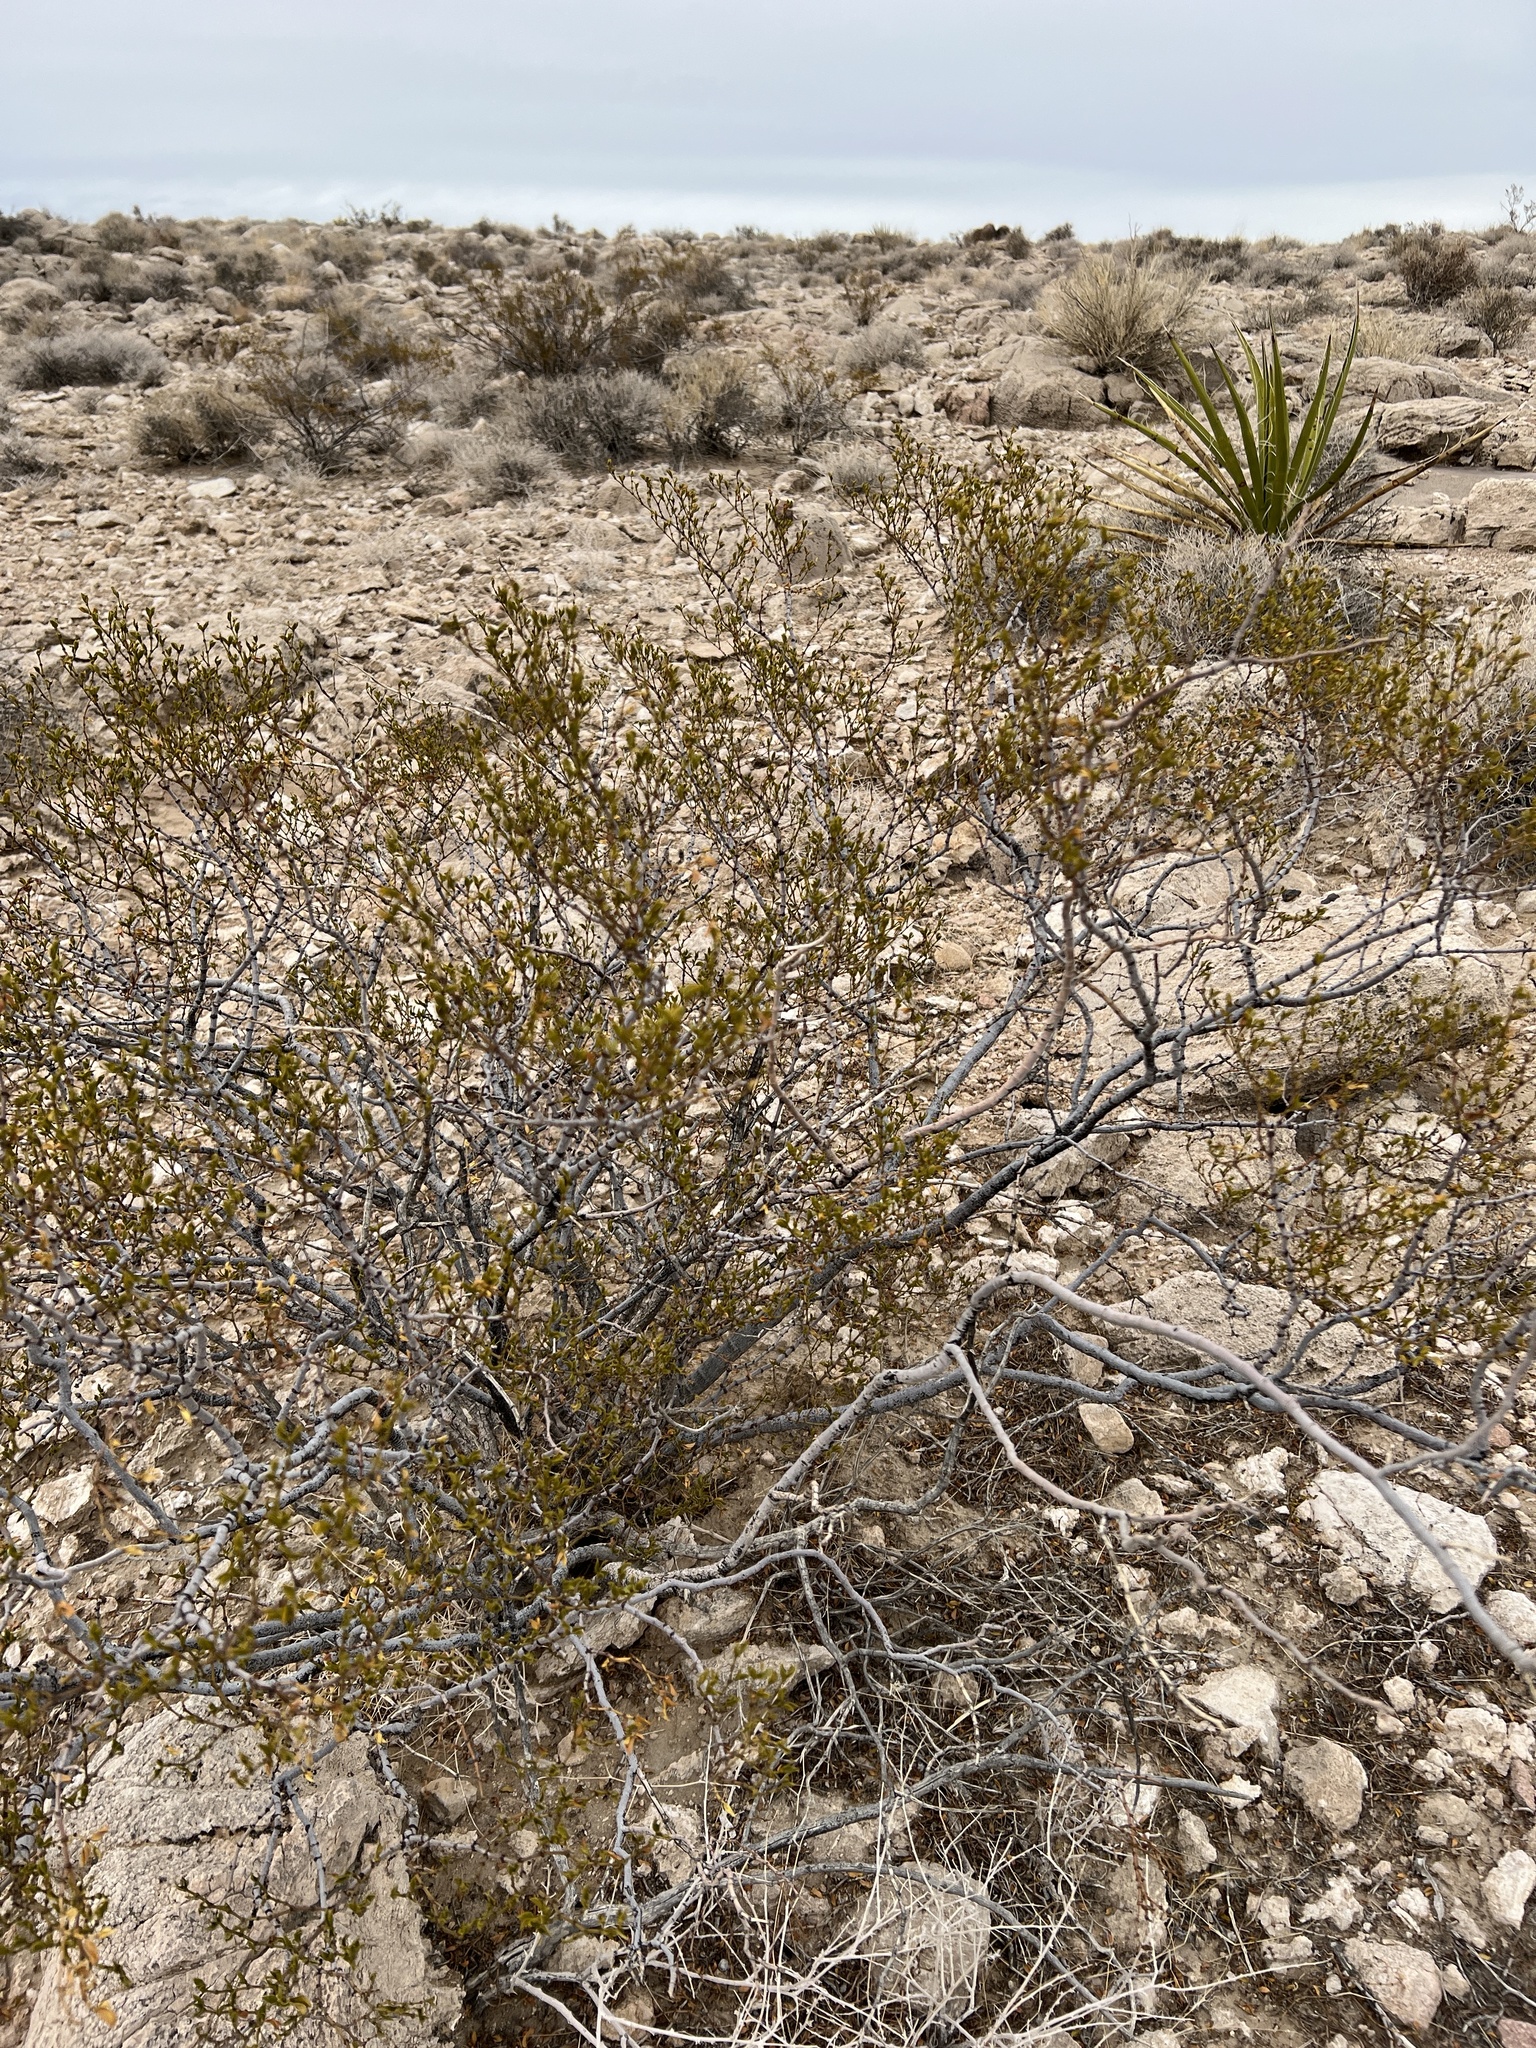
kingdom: Plantae
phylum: Tracheophyta
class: Magnoliopsida
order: Zygophyllales
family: Zygophyllaceae
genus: Larrea
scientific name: Larrea tridentata
